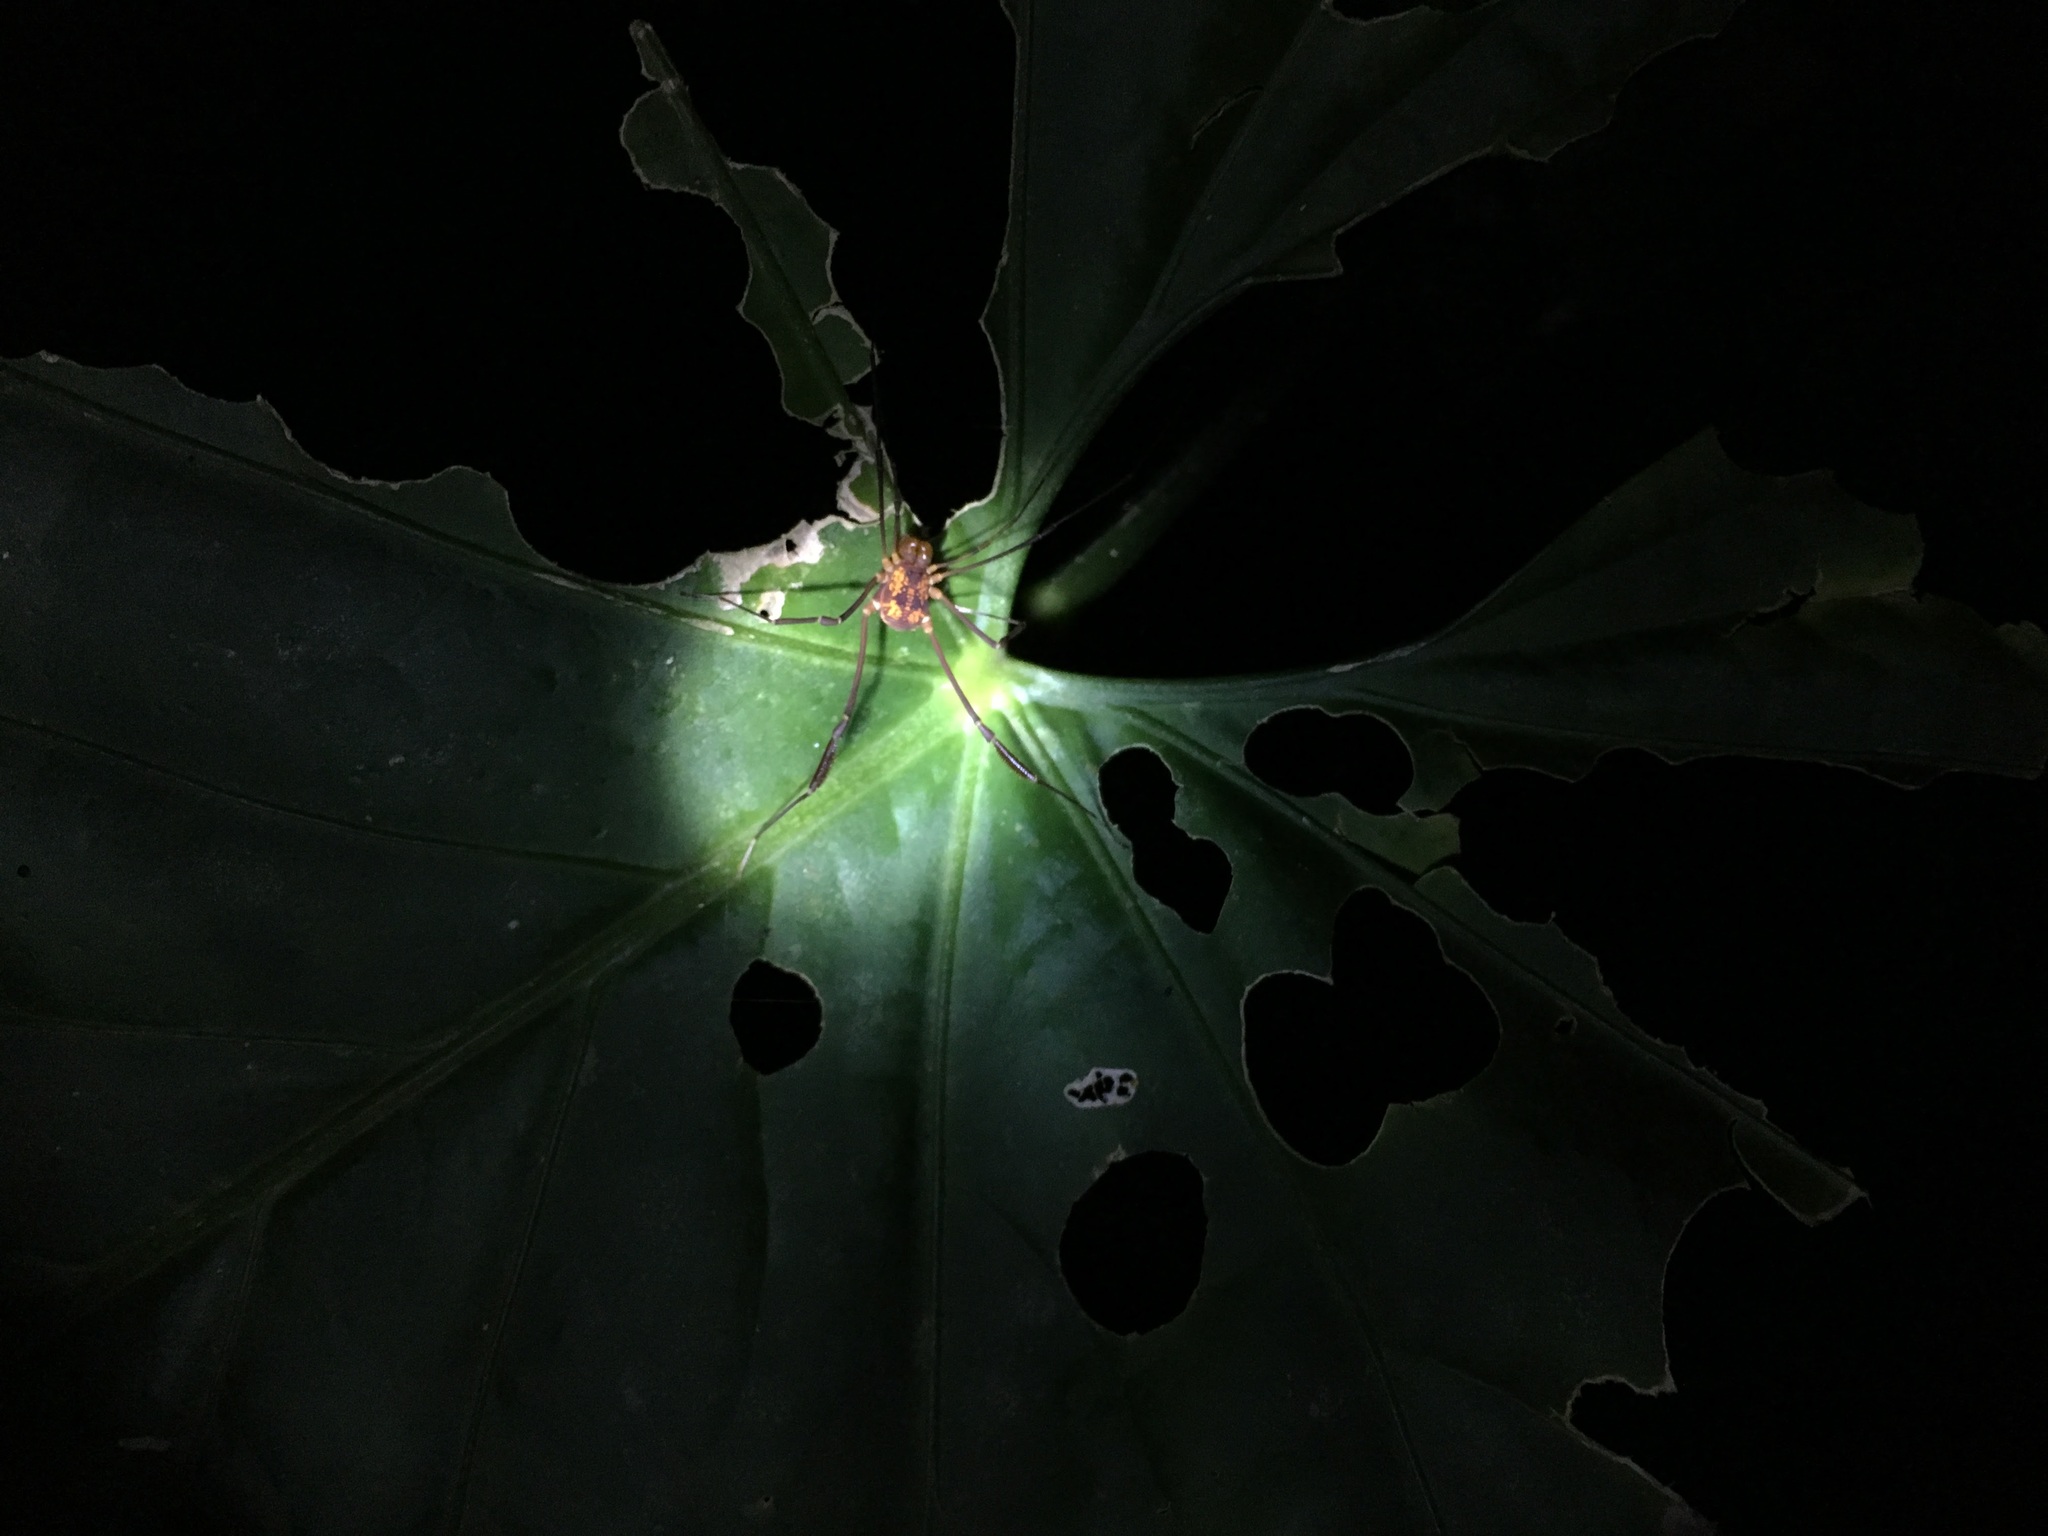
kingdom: Animalia
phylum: Arthropoda
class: Arachnida
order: Opiliones
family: Cosmetidae
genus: Poecilaemula
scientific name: Poecilaemula
